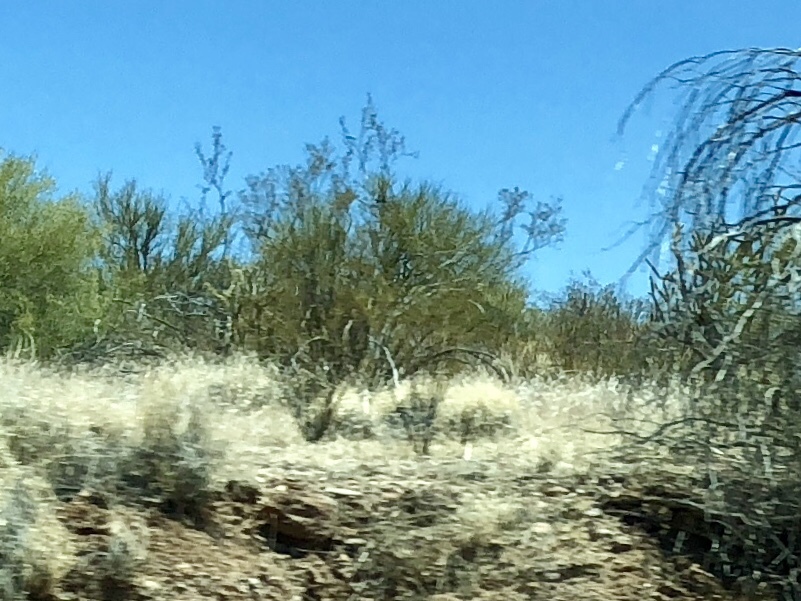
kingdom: Plantae
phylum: Tracheophyta
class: Magnoliopsida
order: Zygophyllales
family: Zygophyllaceae
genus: Larrea
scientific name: Larrea tridentata
